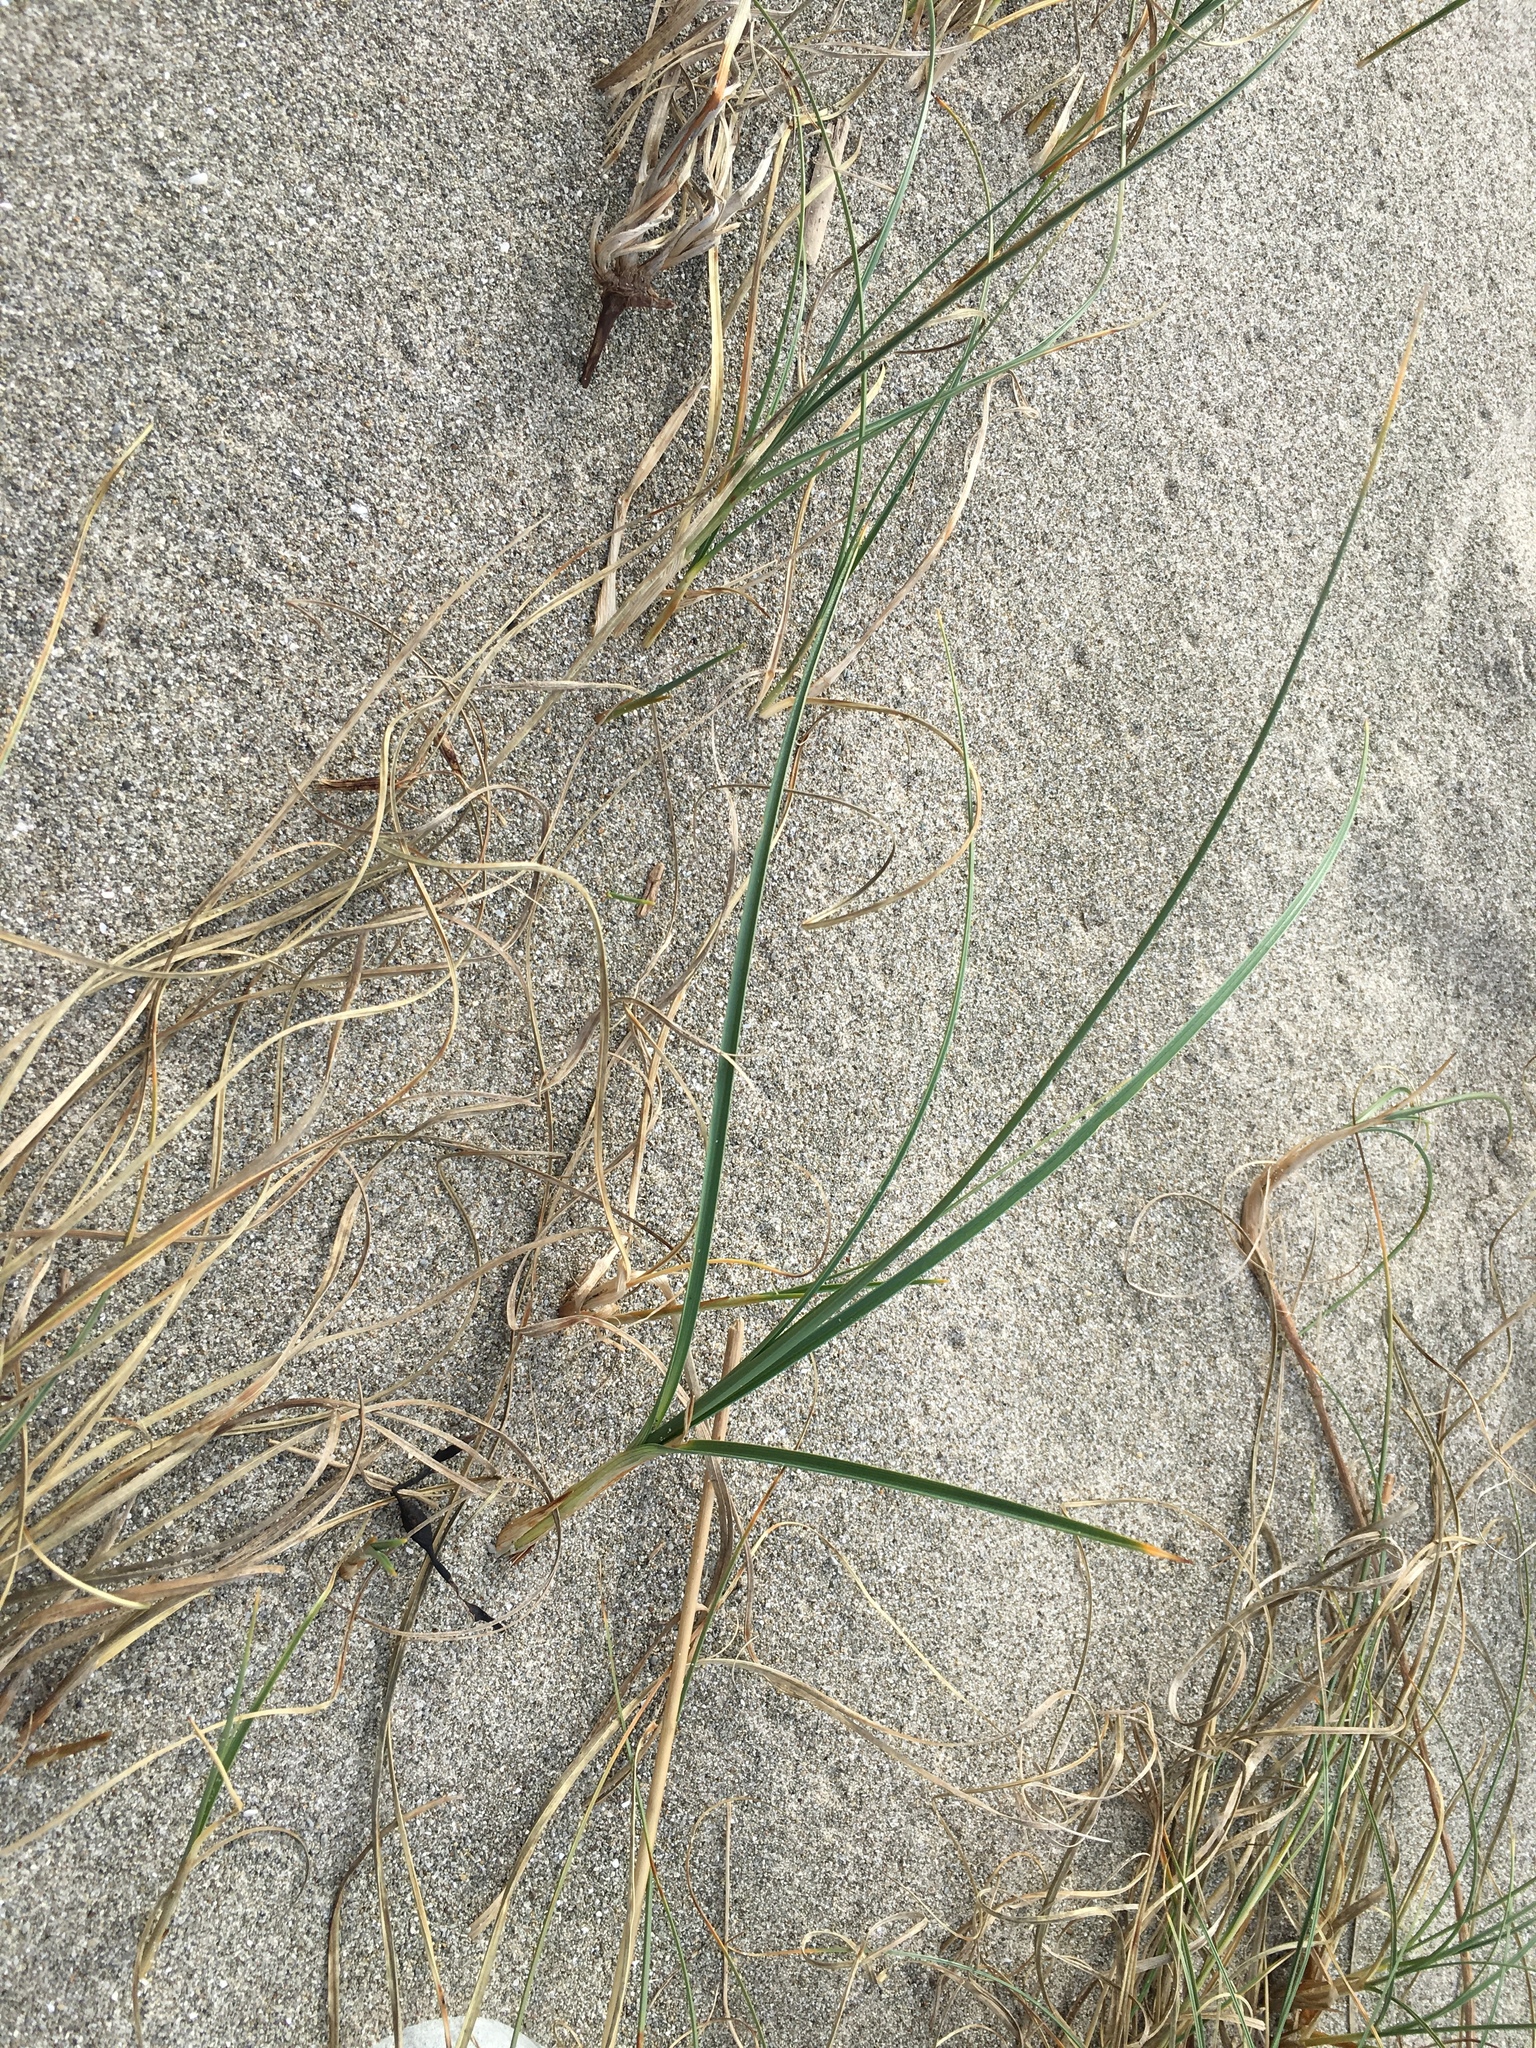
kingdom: Plantae
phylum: Tracheophyta
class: Liliopsida
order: Poales
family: Cyperaceae
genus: Carex
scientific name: Carex pumila
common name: Dwarf sedge
